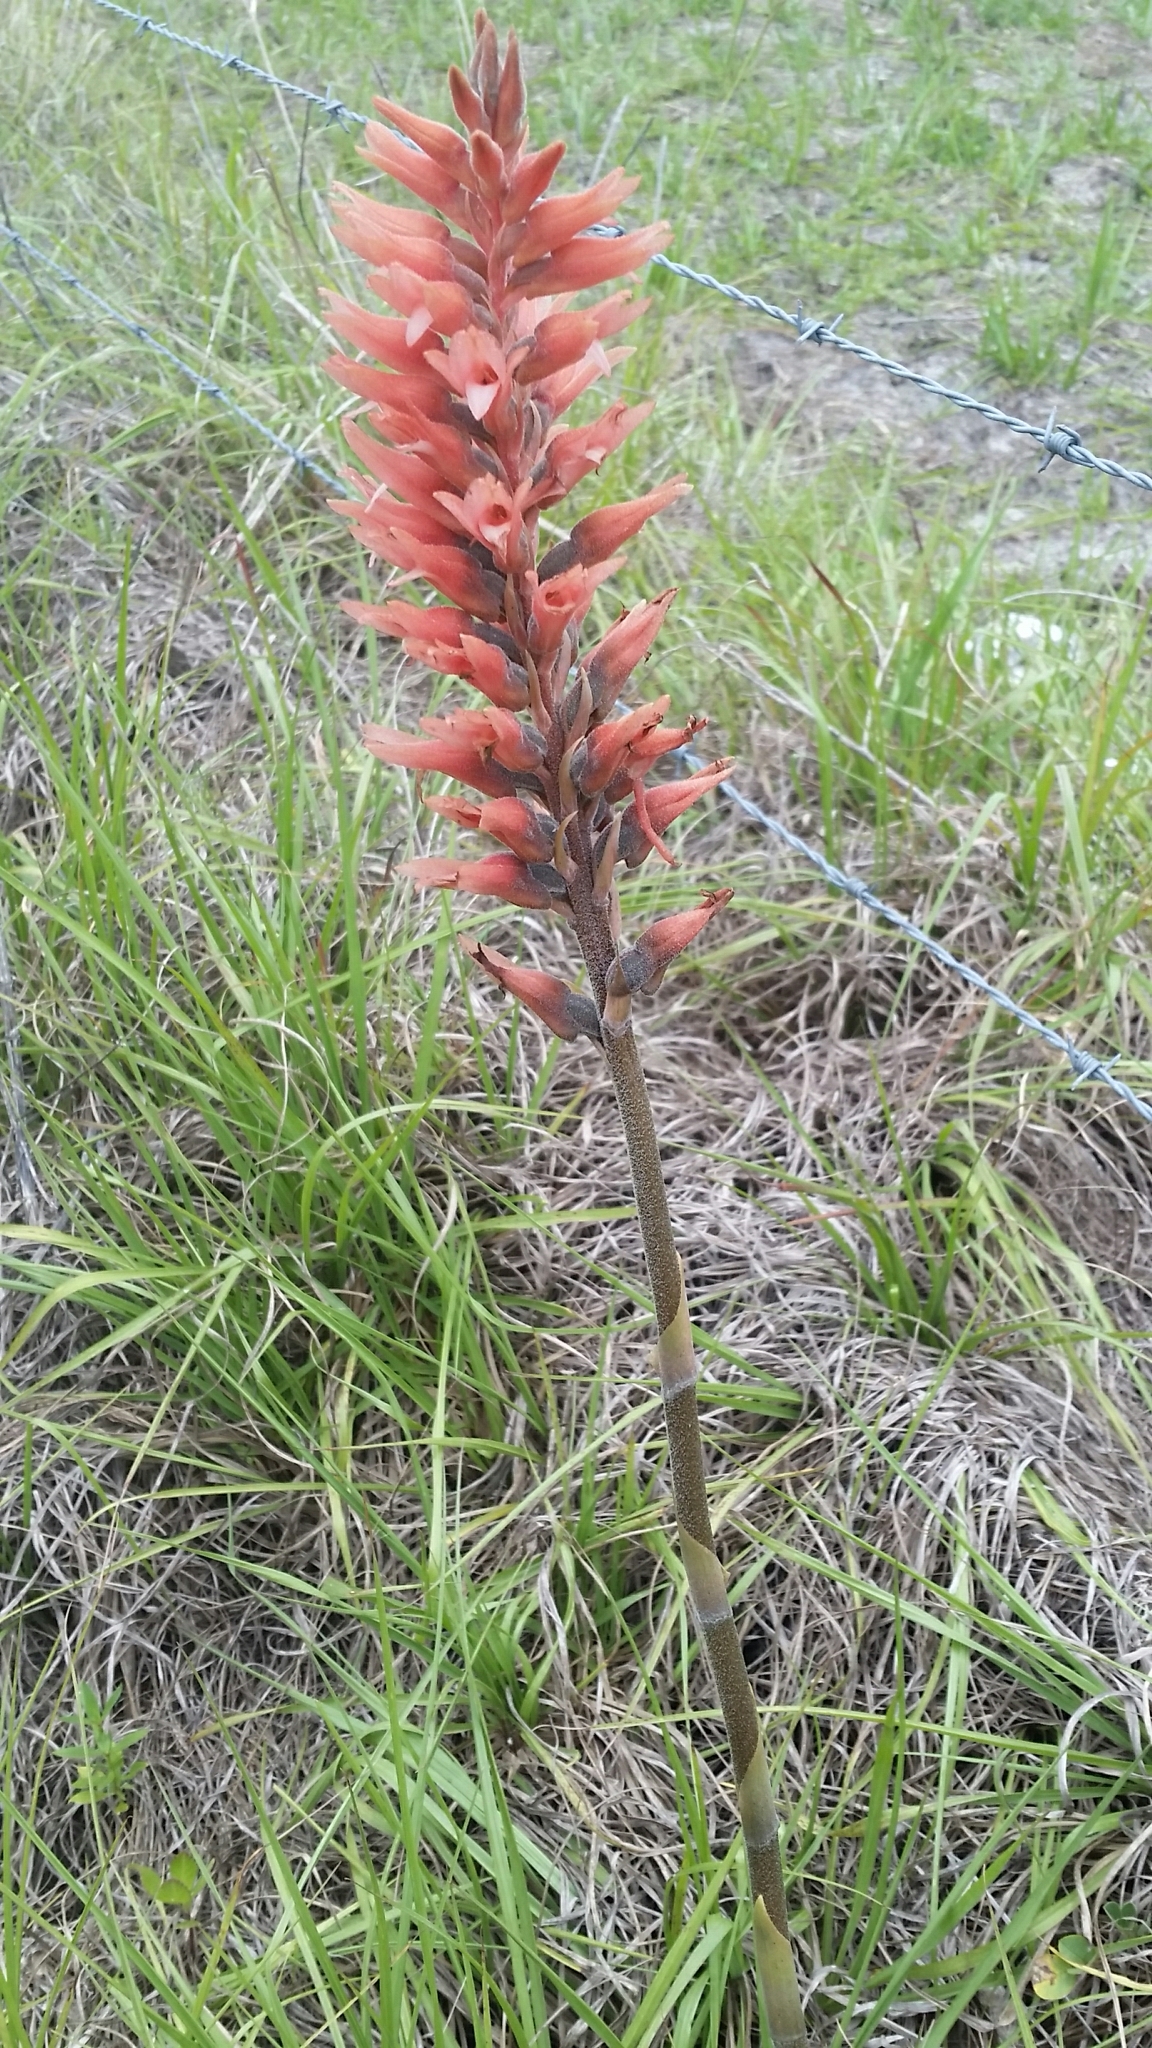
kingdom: Plantae
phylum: Tracheophyta
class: Liliopsida
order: Asparagales
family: Orchidaceae
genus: Sacoila
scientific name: Sacoila lanceolata
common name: Leafless beaked ladiestresses
